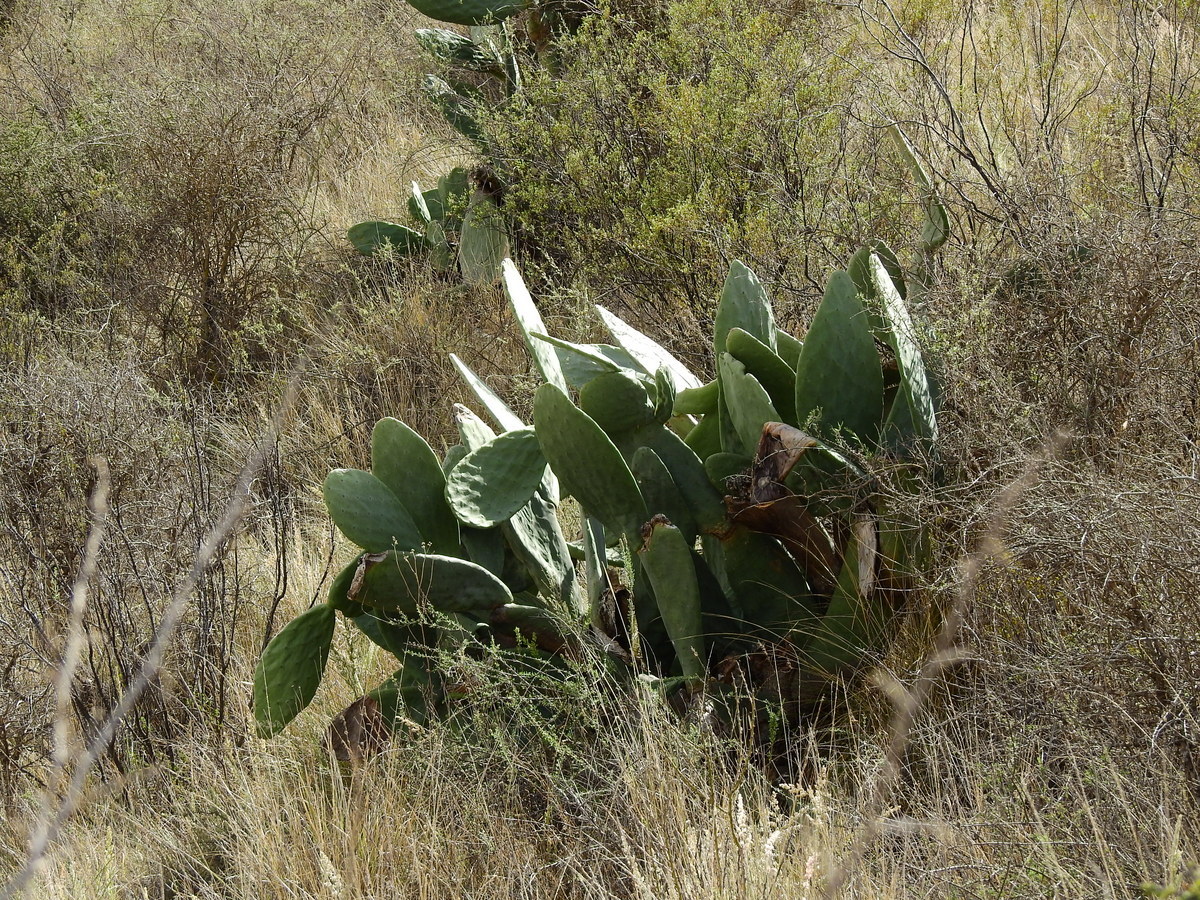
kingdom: Plantae
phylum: Tracheophyta
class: Magnoliopsida
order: Caryophyllales
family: Cactaceae
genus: Opuntia
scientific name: Opuntia ficus-indica
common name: Barbary fig
